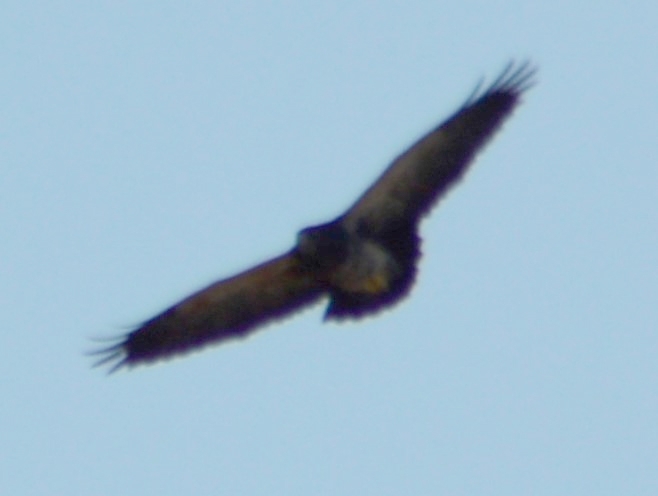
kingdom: Animalia
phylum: Chordata
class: Aves
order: Accipitriformes
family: Accipitridae
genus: Geranoaetus
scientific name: Geranoaetus melanoleucus
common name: Black-chested buzzard-eagle
